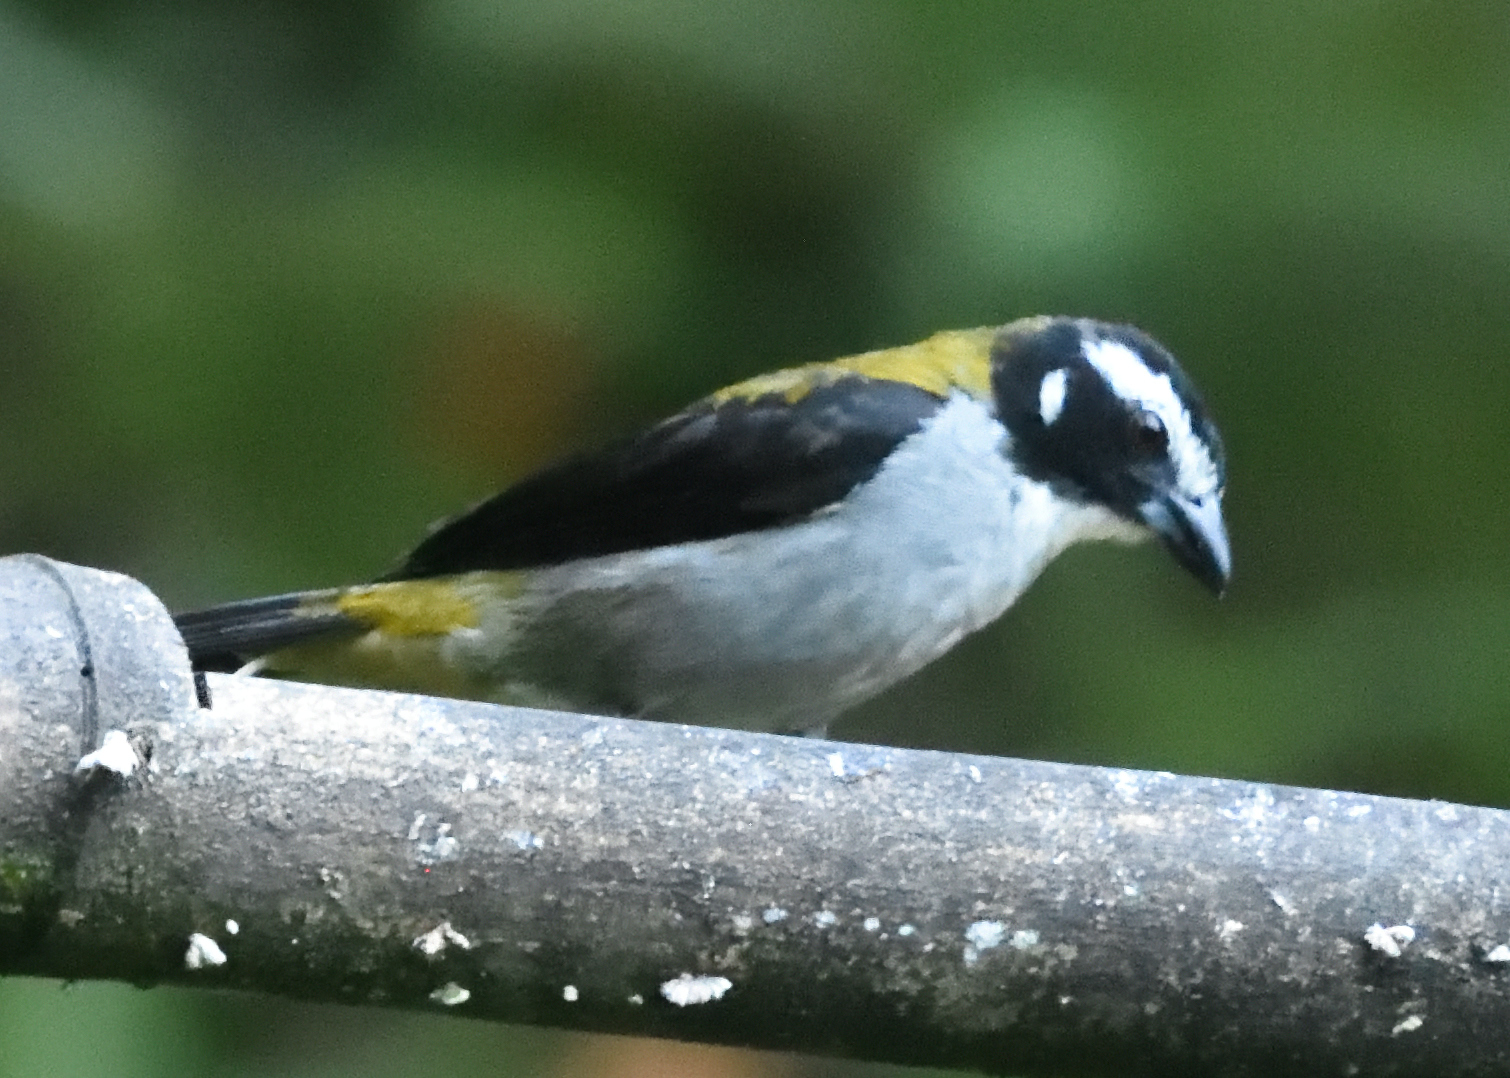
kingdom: Animalia
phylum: Chordata
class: Aves
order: Passeriformes
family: Thraupidae
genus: Saltator
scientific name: Saltator atripennis
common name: Black-winged saltator
